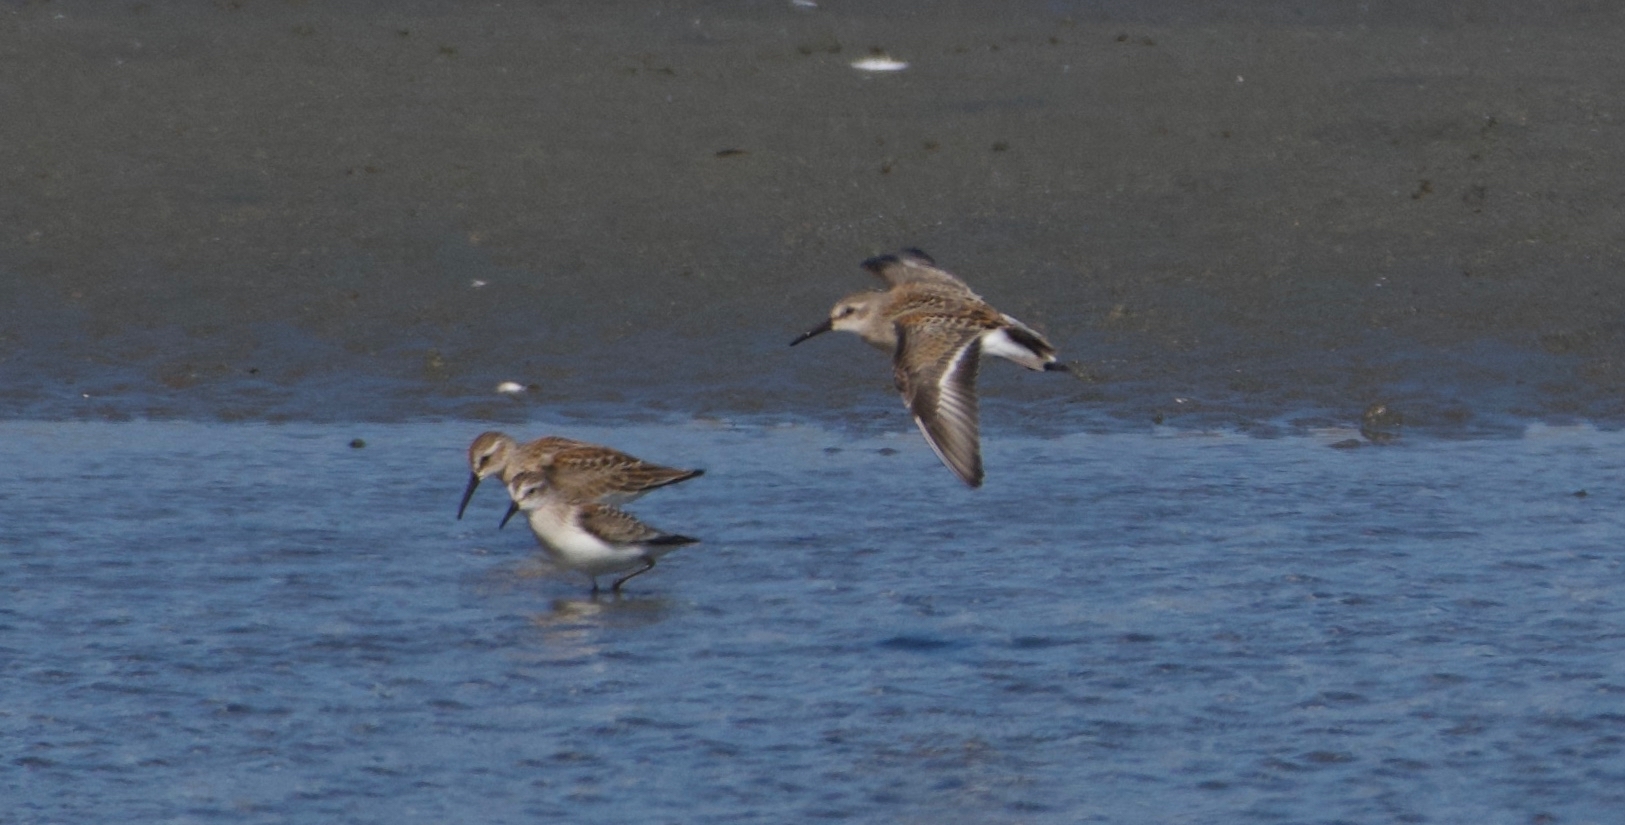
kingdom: Animalia
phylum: Chordata
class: Aves
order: Charadriiformes
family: Scolopacidae
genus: Calidris
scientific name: Calidris mauri
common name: Western sandpiper
